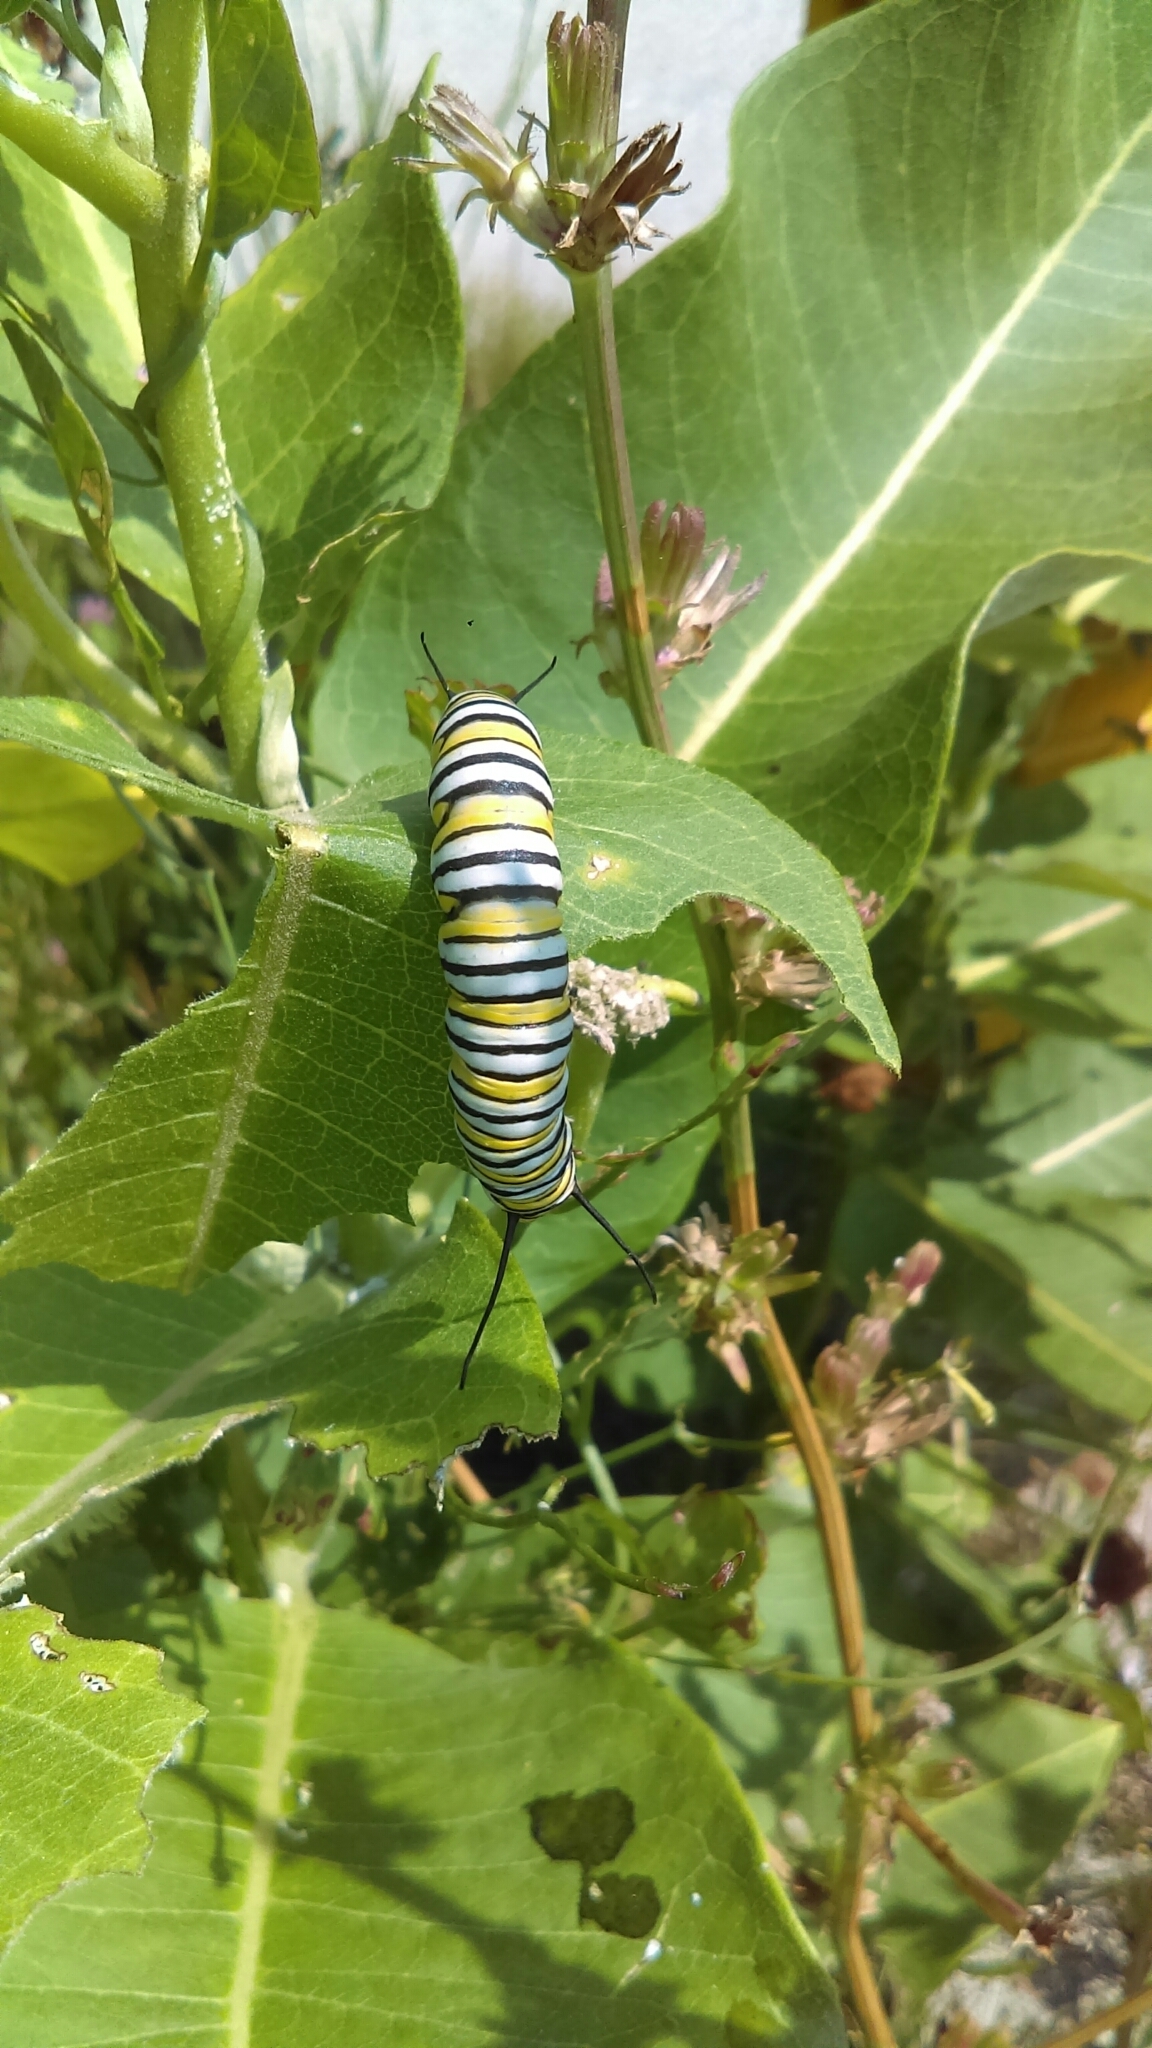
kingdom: Animalia
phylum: Arthropoda
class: Insecta
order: Lepidoptera
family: Nymphalidae
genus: Danaus
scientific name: Danaus plexippus
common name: Monarch
